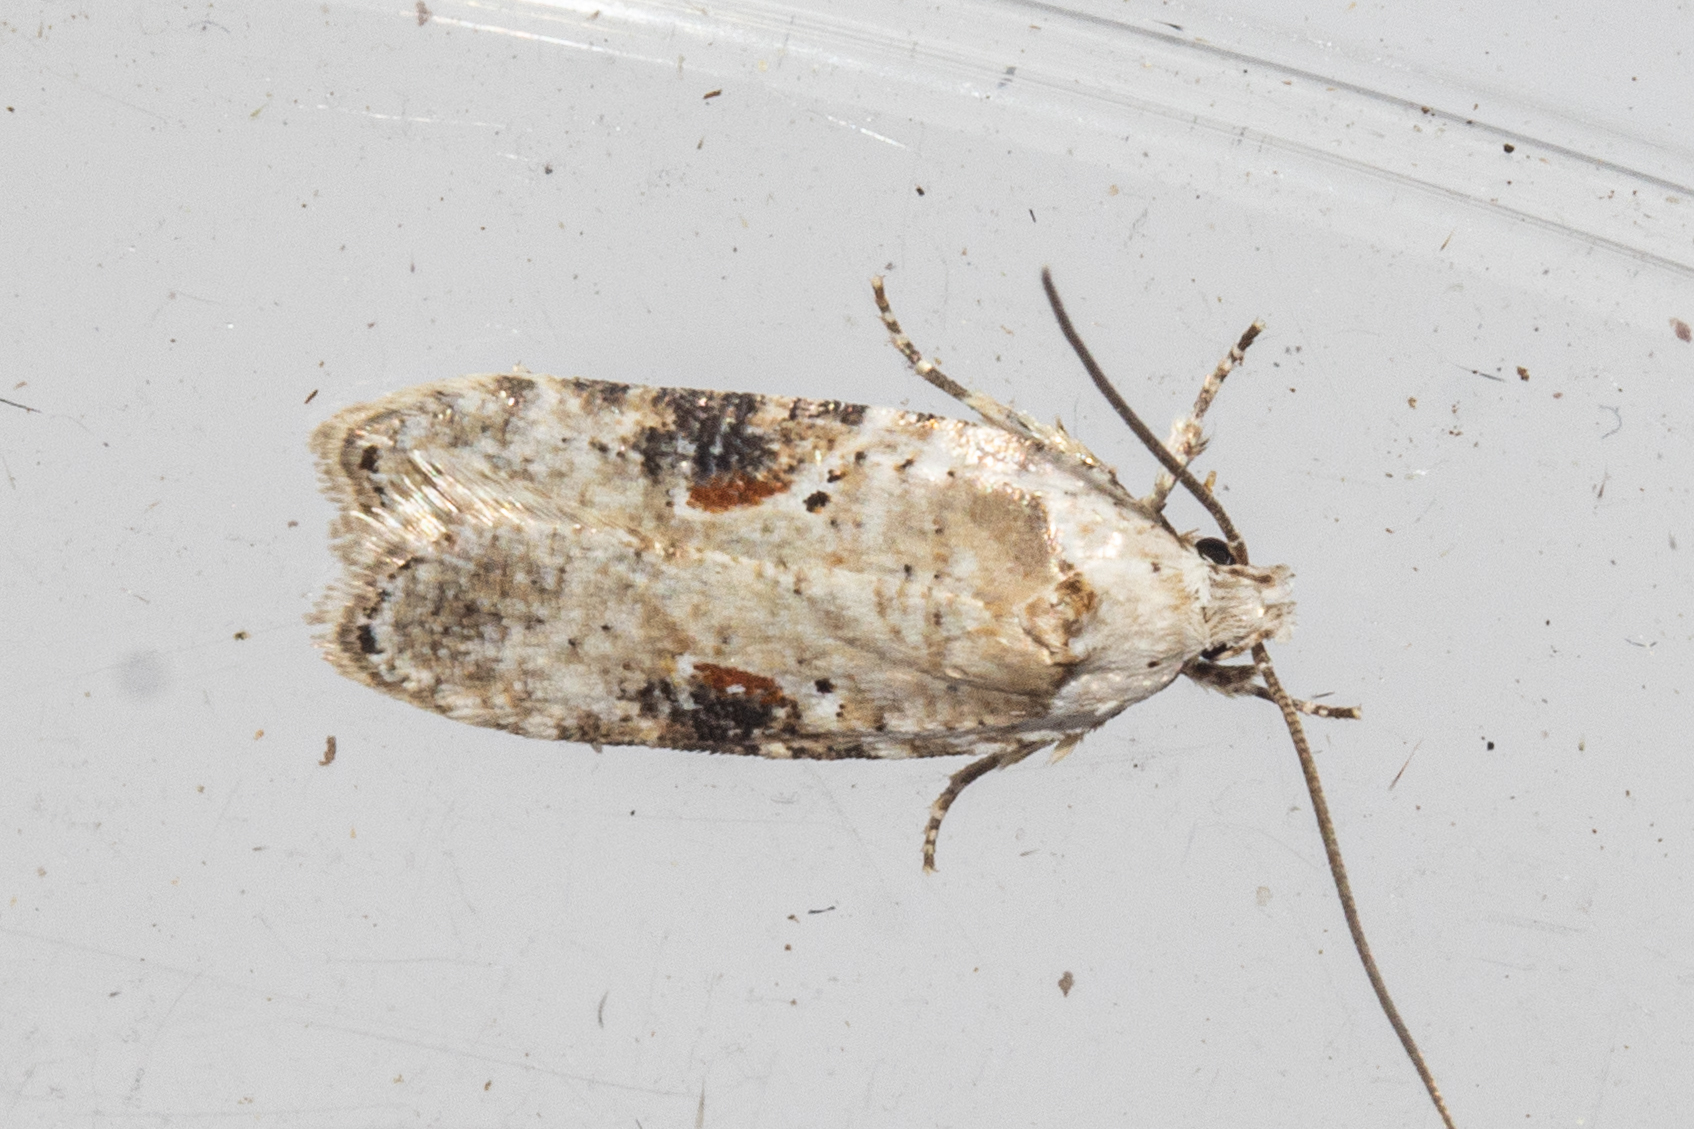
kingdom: Animalia
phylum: Arthropoda
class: Insecta
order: Lepidoptera
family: Depressariidae
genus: Agonopterix
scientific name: Agonopterix alstroemeriana
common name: Moth
